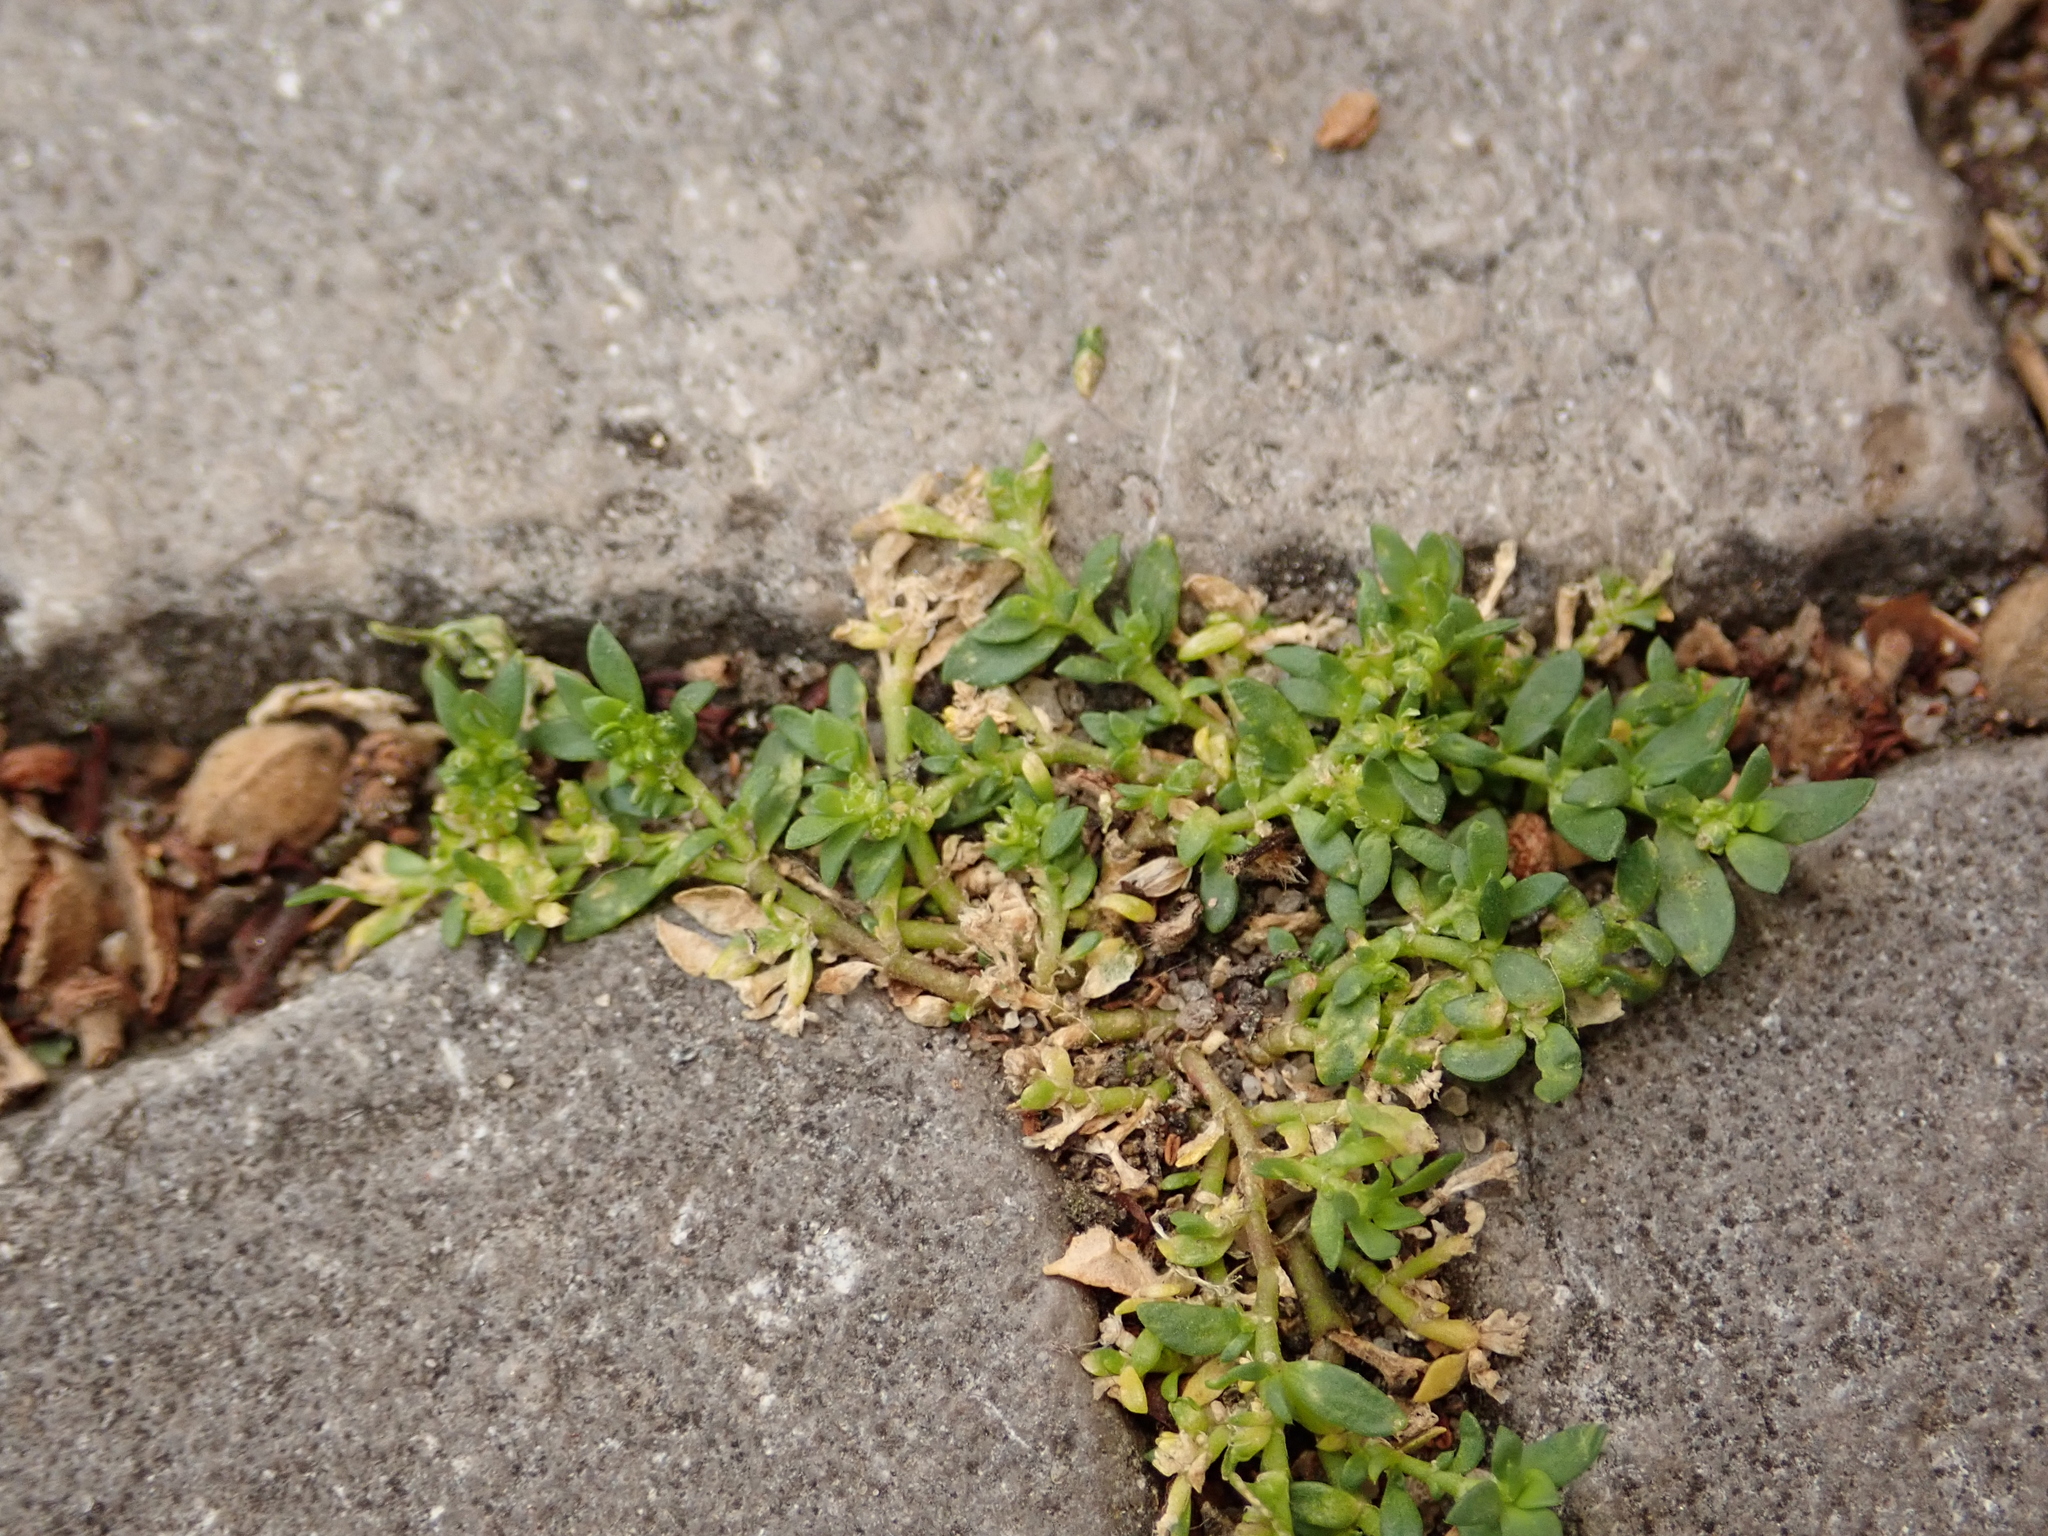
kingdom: Plantae
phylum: Tracheophyta
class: Magnoliopsida
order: Caryophyllales
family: Caryophyllaceae
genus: Herniaria
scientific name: Herniaria glabra
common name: Smooth rupturewort
